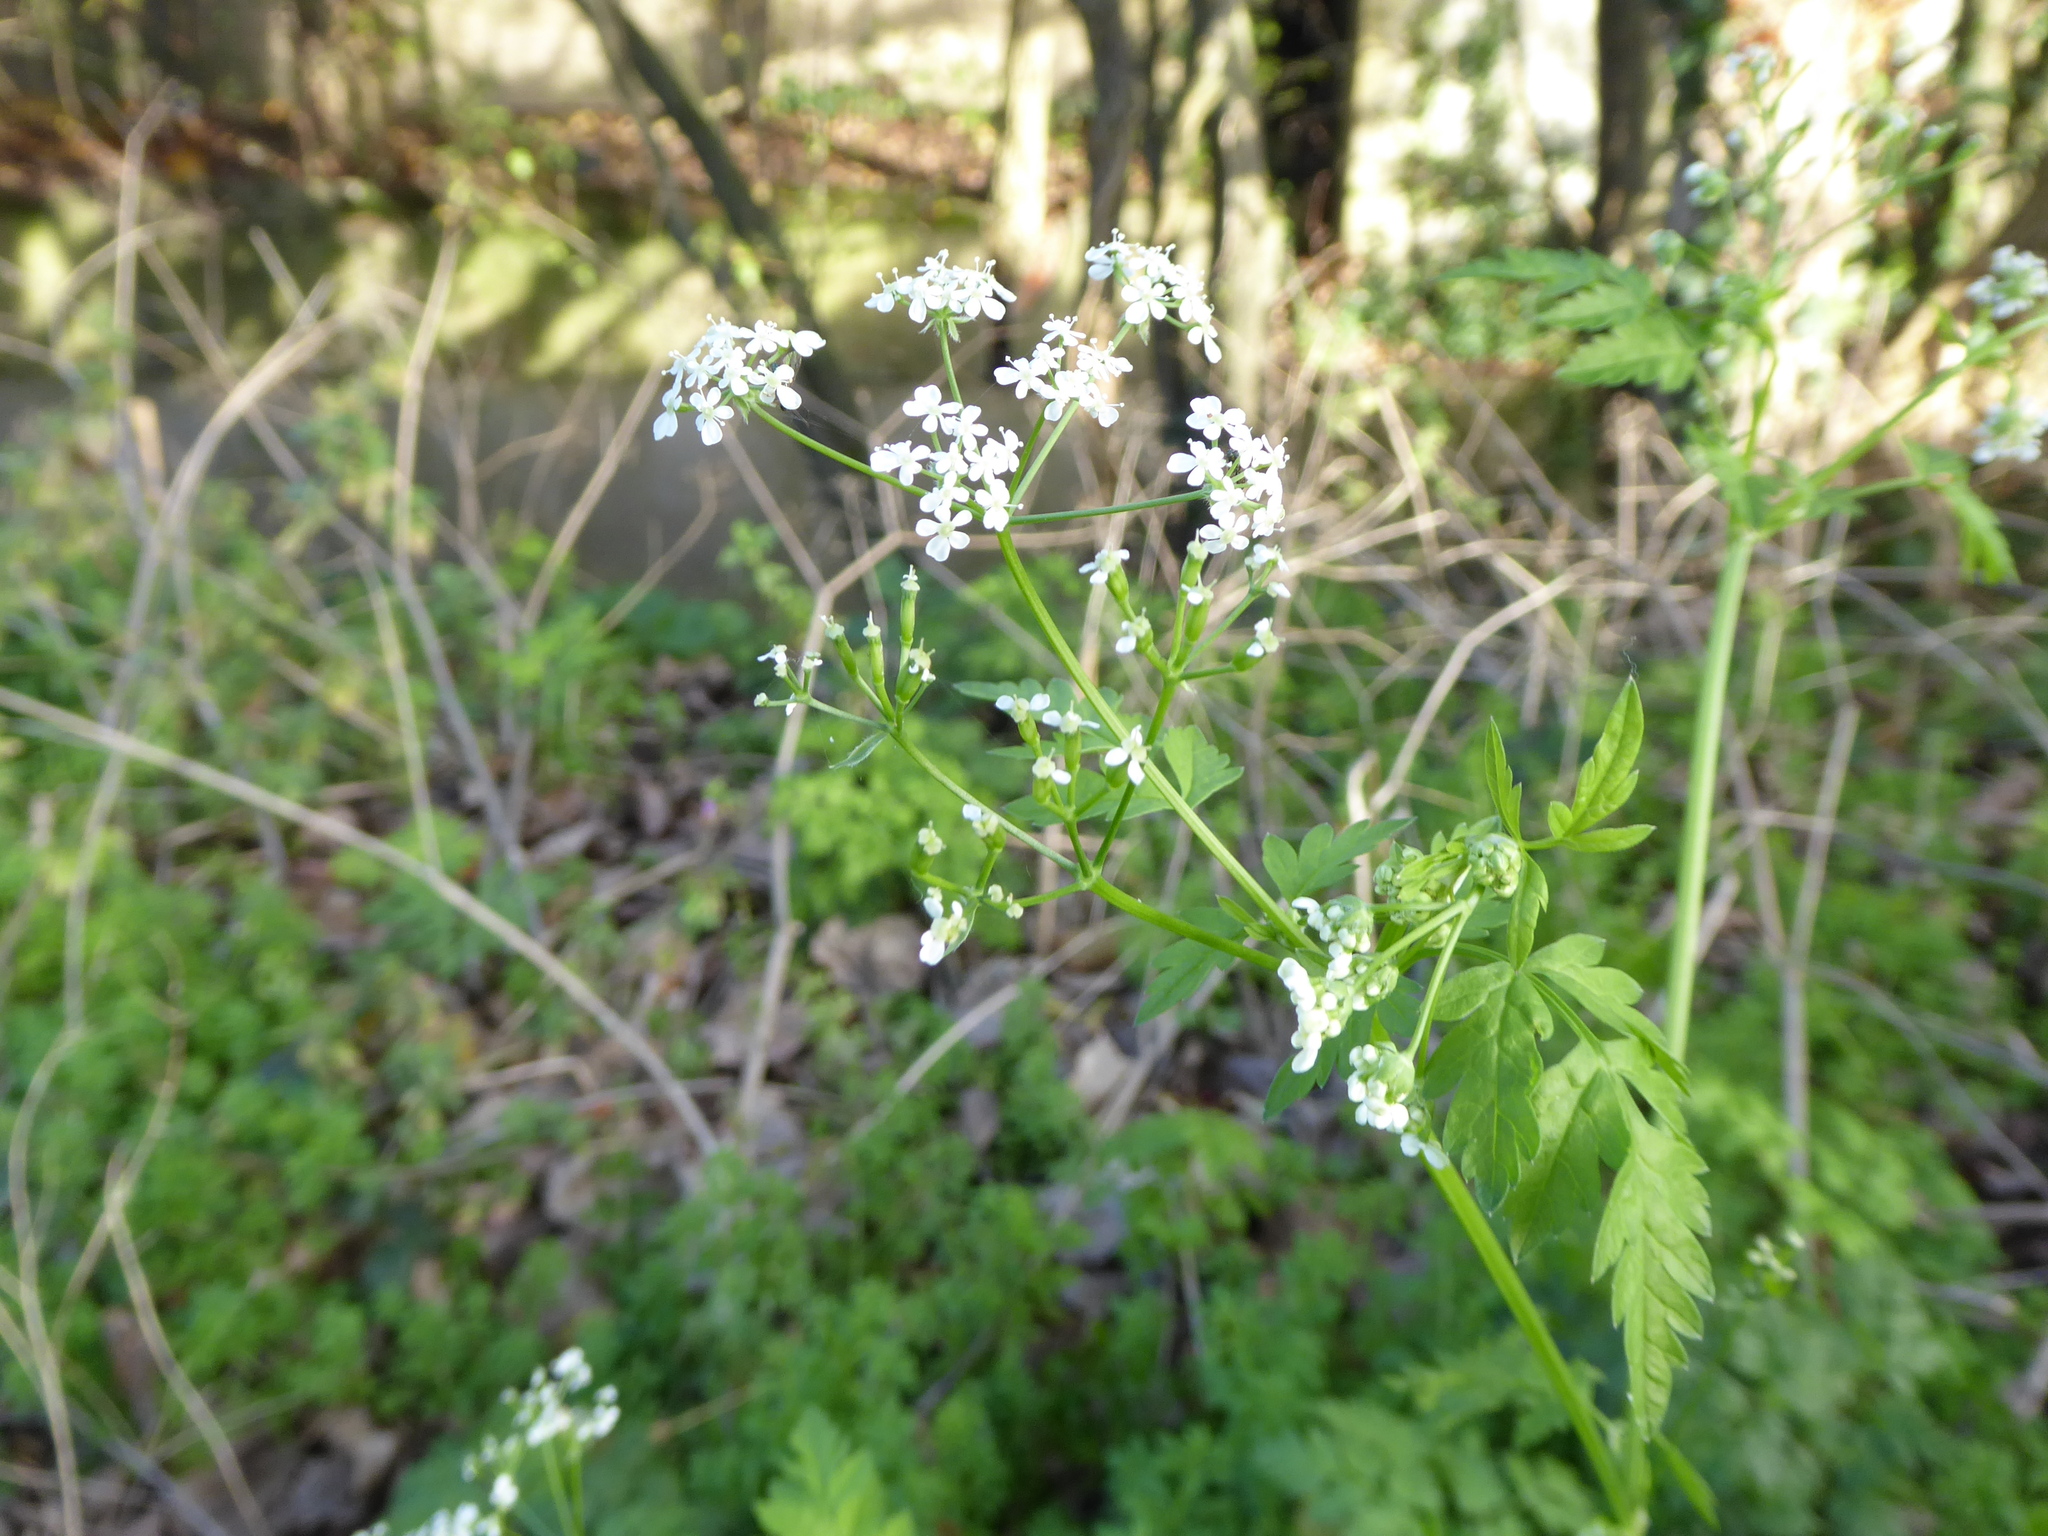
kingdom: Plantae
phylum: Tracheophyta
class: Magnoliopsida
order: Apiales
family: Apiaceae
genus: Anthriscus
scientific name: Anthriscus sylvestris
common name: Cow parsley
